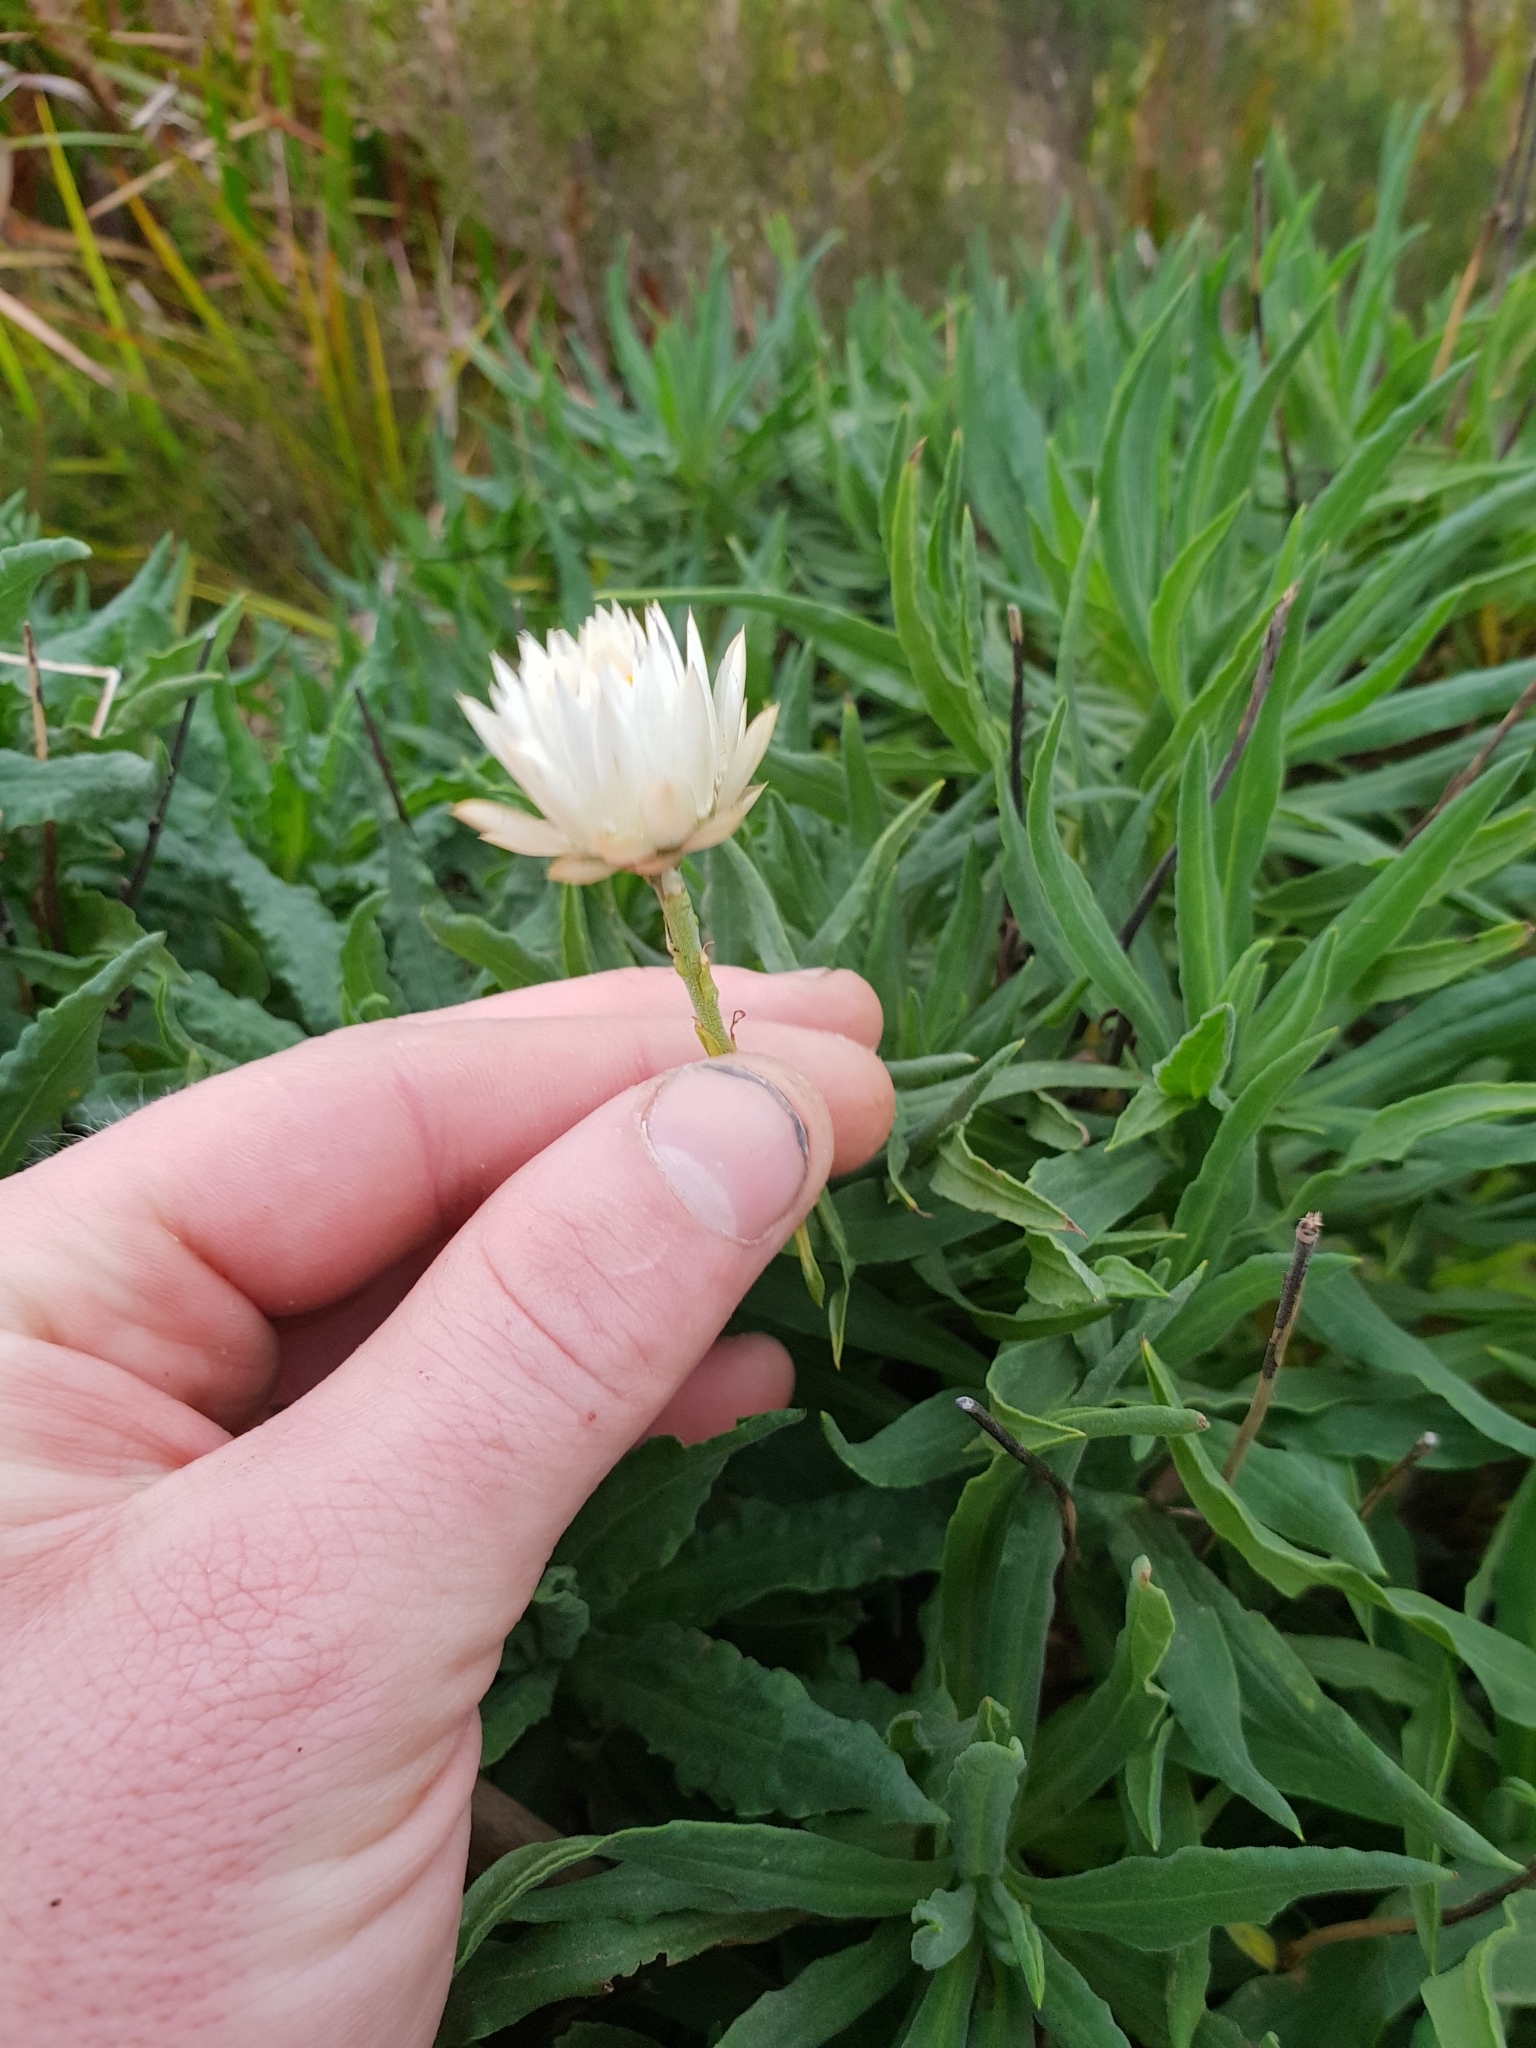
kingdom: Plantae
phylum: Tracheophyta
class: Magnoliopsida
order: Asterales
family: Asteraceae
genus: Xerochrysum
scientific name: Xerochrysum wilsonii
